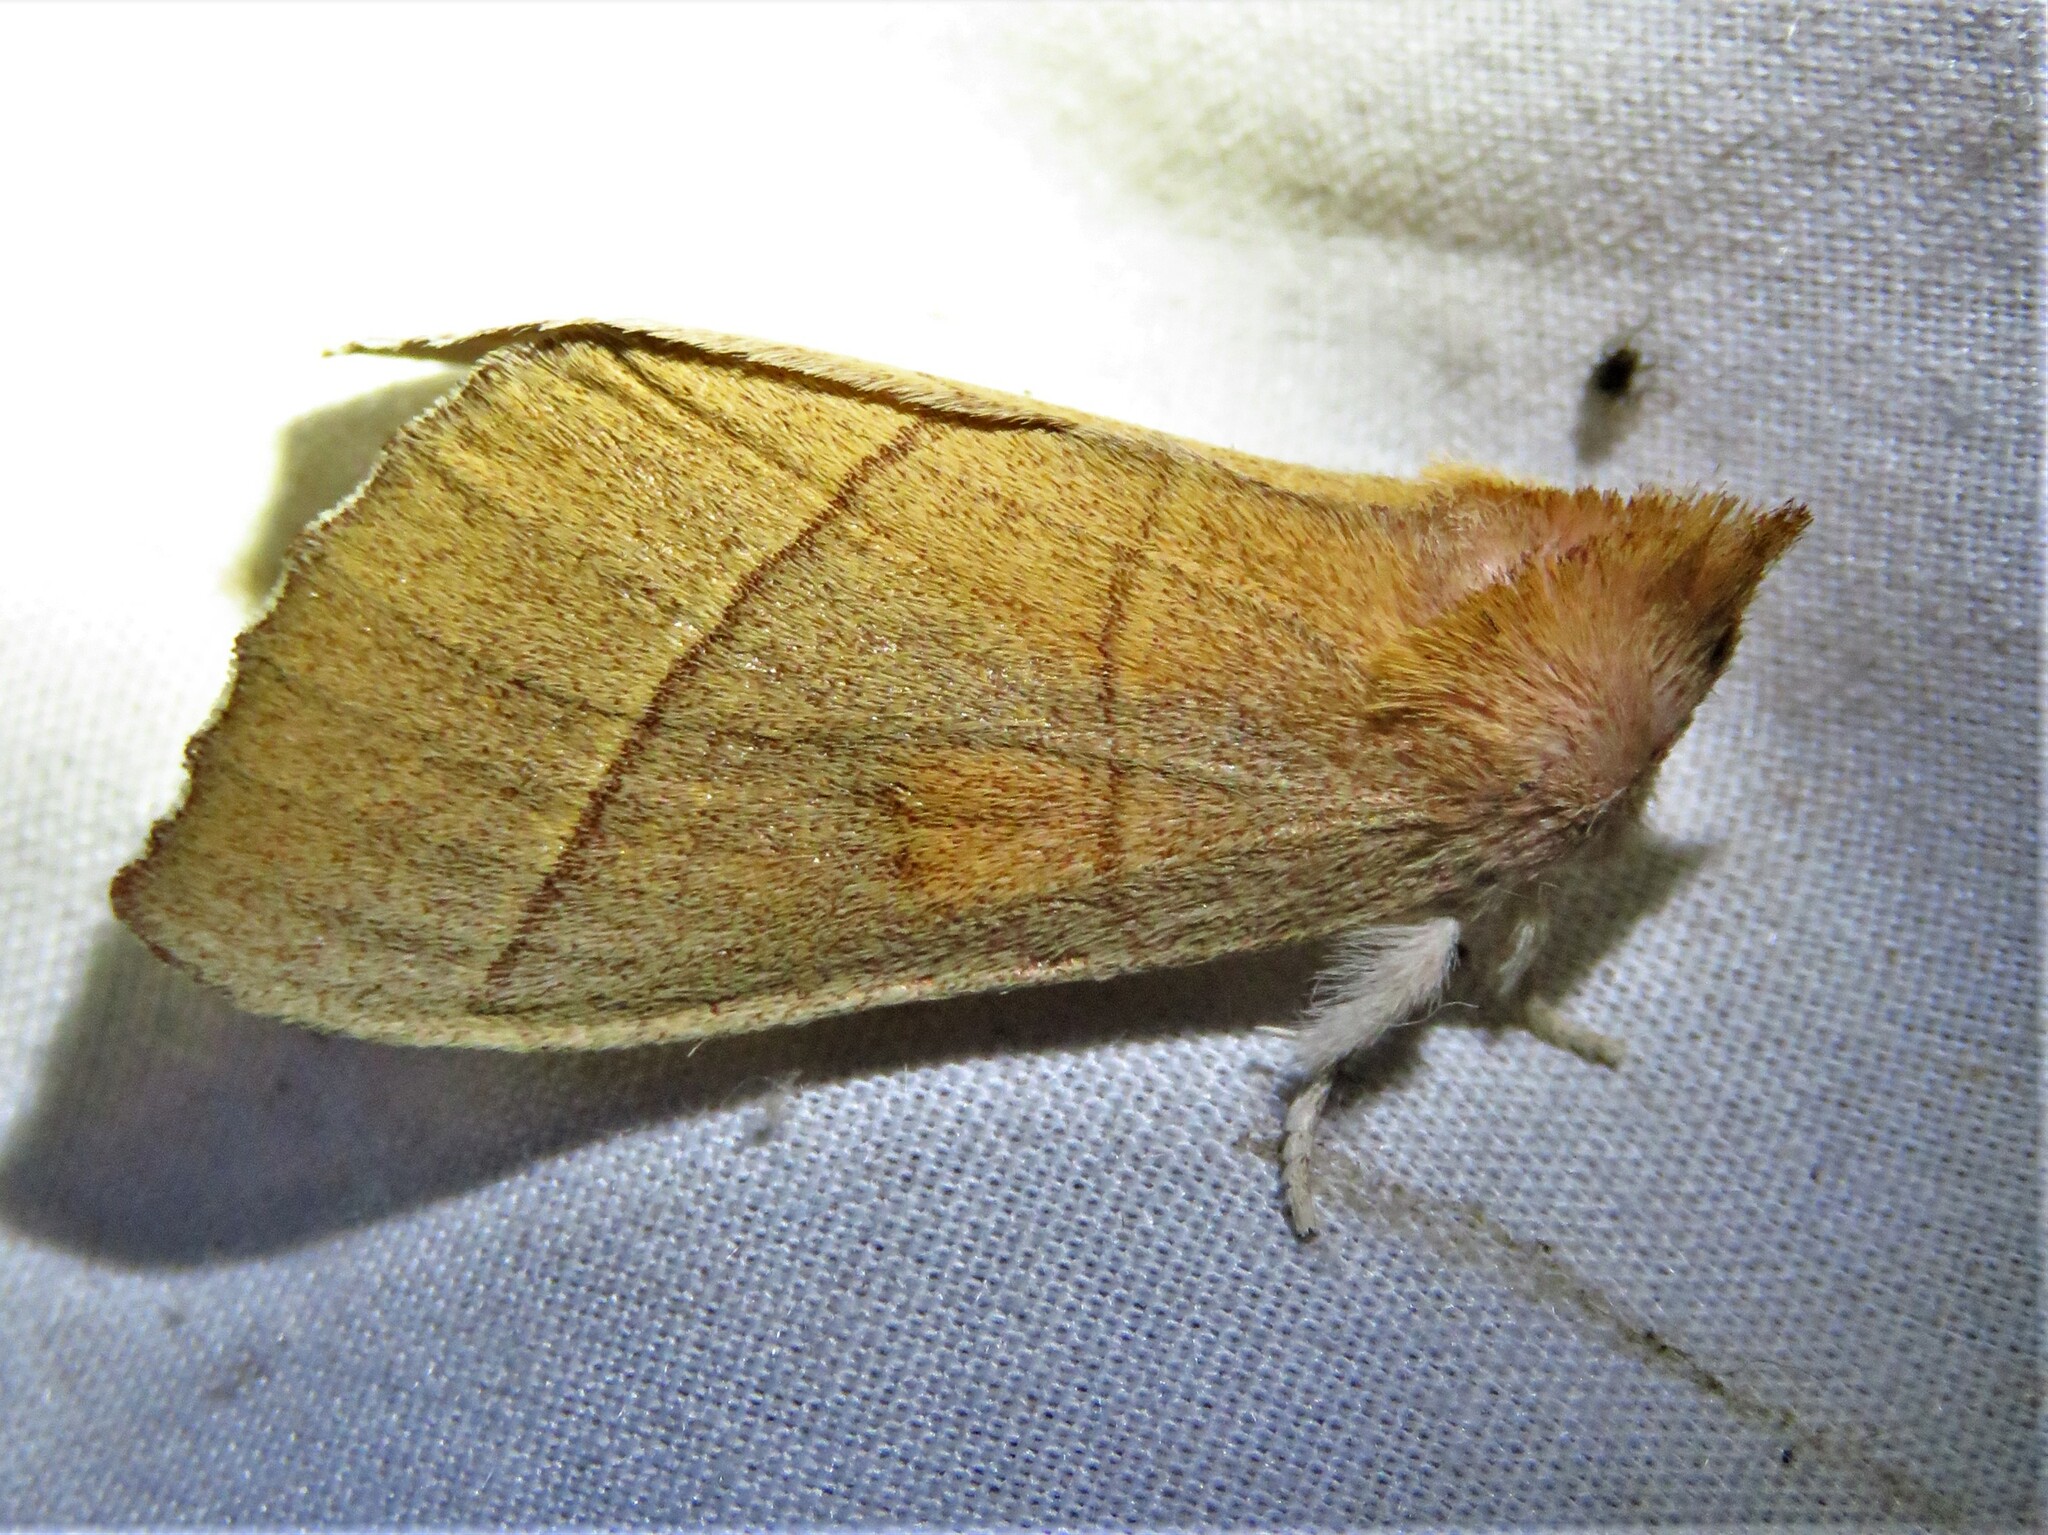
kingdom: Animalia
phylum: Arthropoda
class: Insecta
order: Lepidoptera
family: Notodontidae
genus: Nadata
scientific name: Nadata gibbosa
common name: White-dotted prominent
